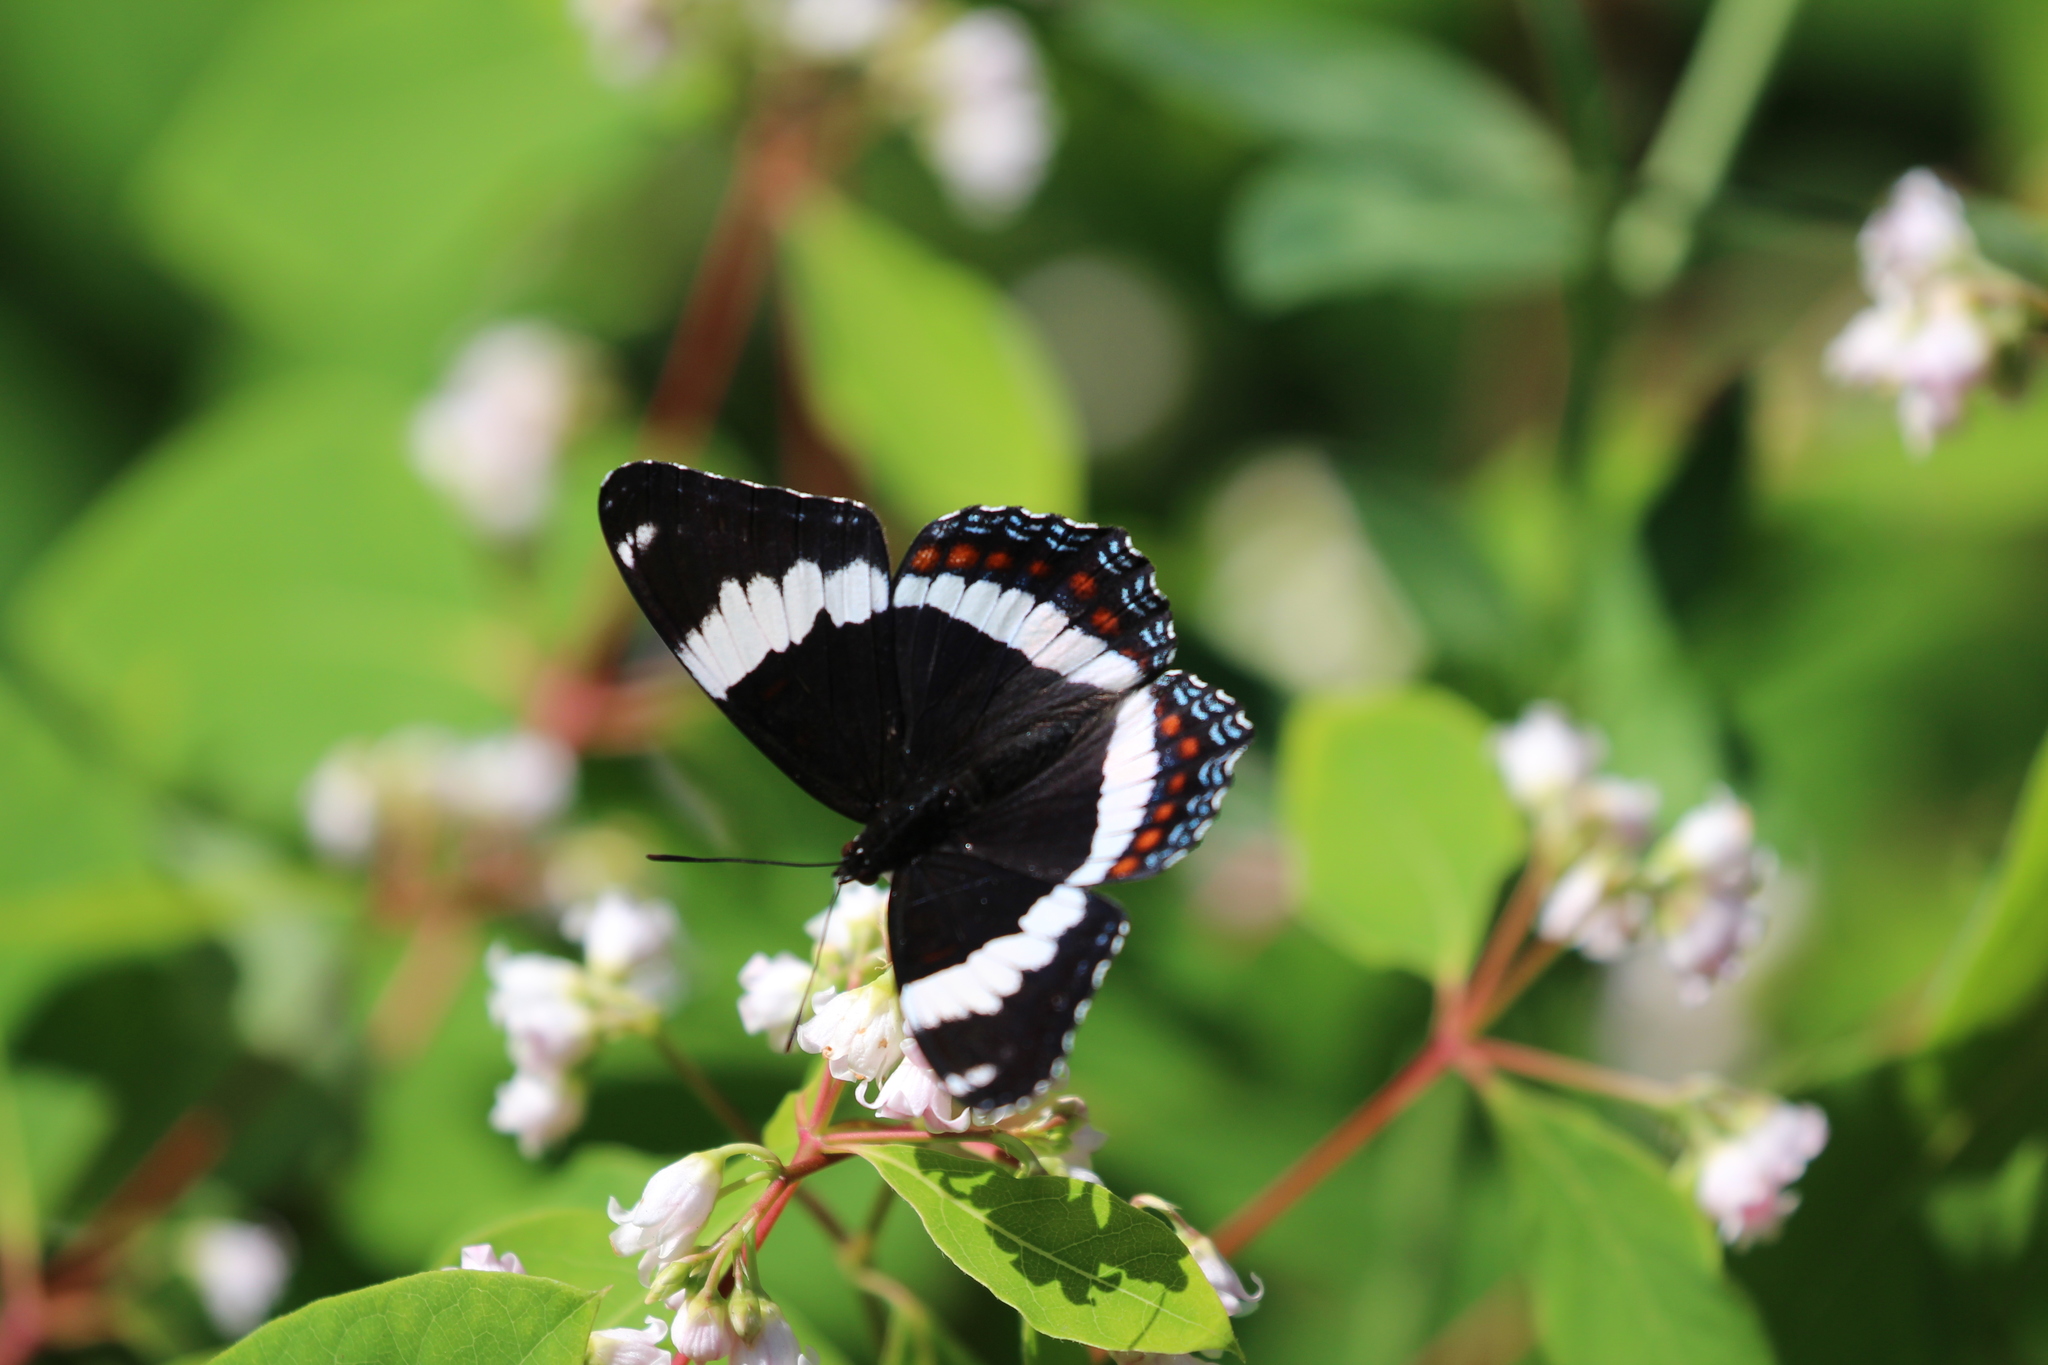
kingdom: Animalia
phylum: Arthropoda
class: Insecta
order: Lepidoptera
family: Nymphalidae
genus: Limenitis
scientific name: Limenitis arthemis
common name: Red-spotted admiral
